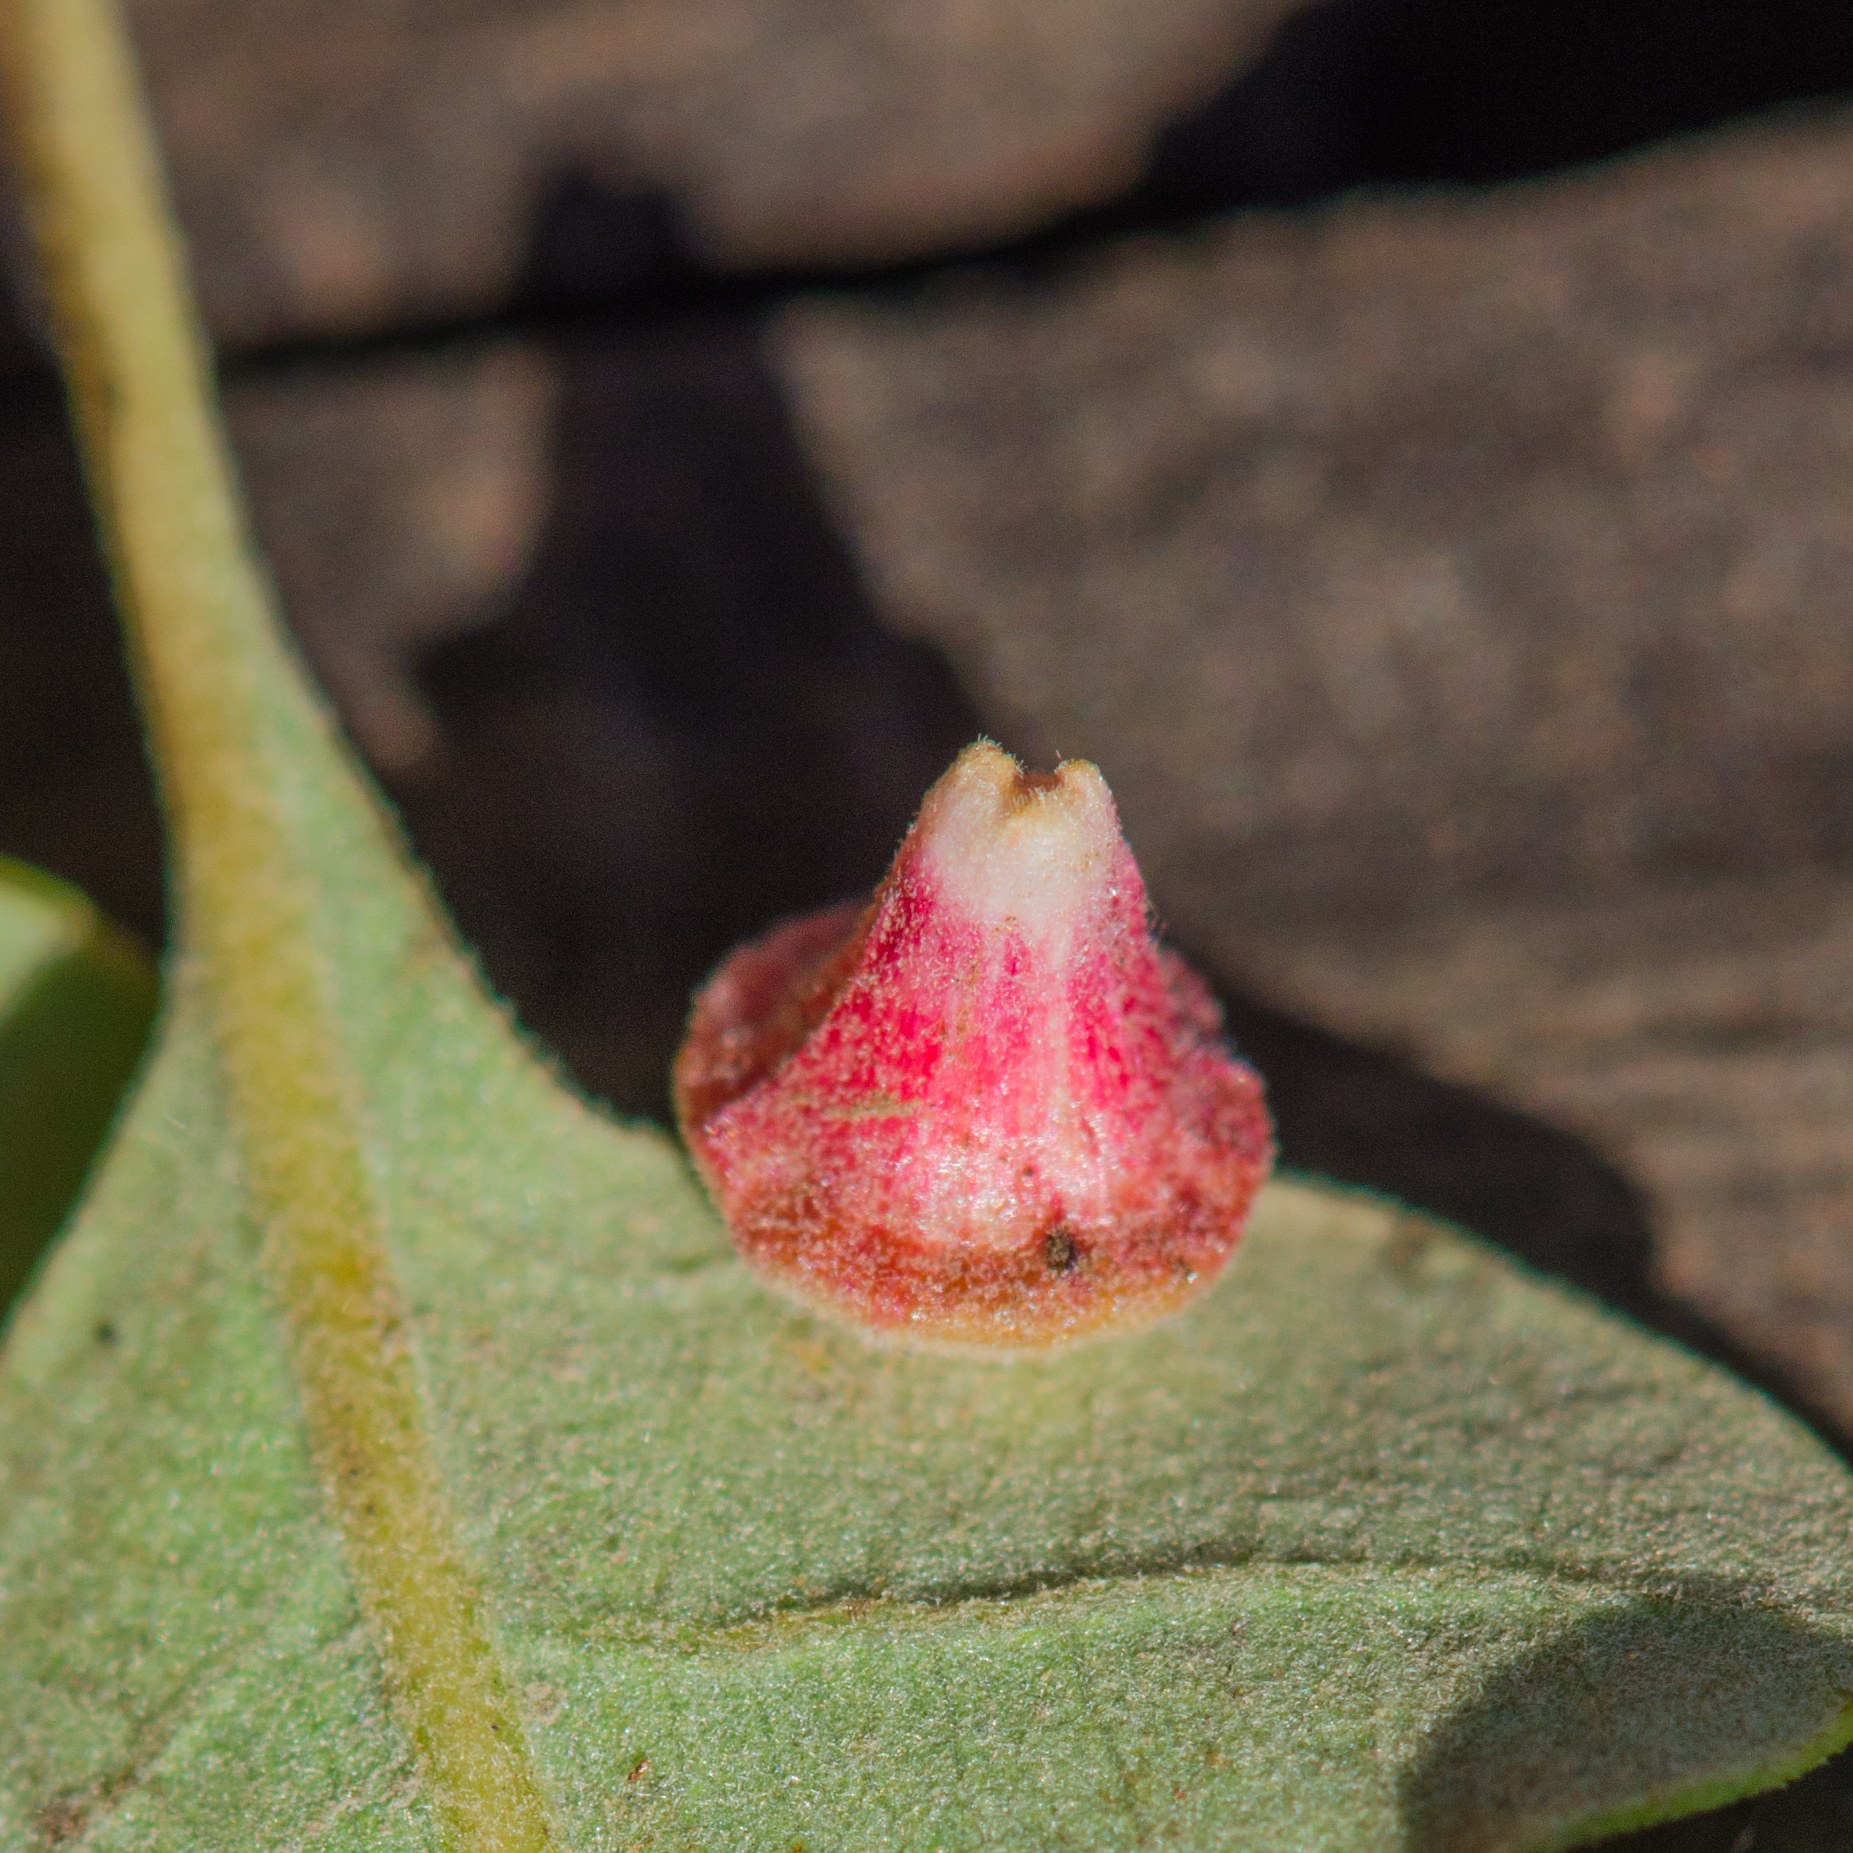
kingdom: Animalia
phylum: Arthropoda
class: Insecta
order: Hymenoptera
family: Cynipidae
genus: Andricus
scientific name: Andricus
